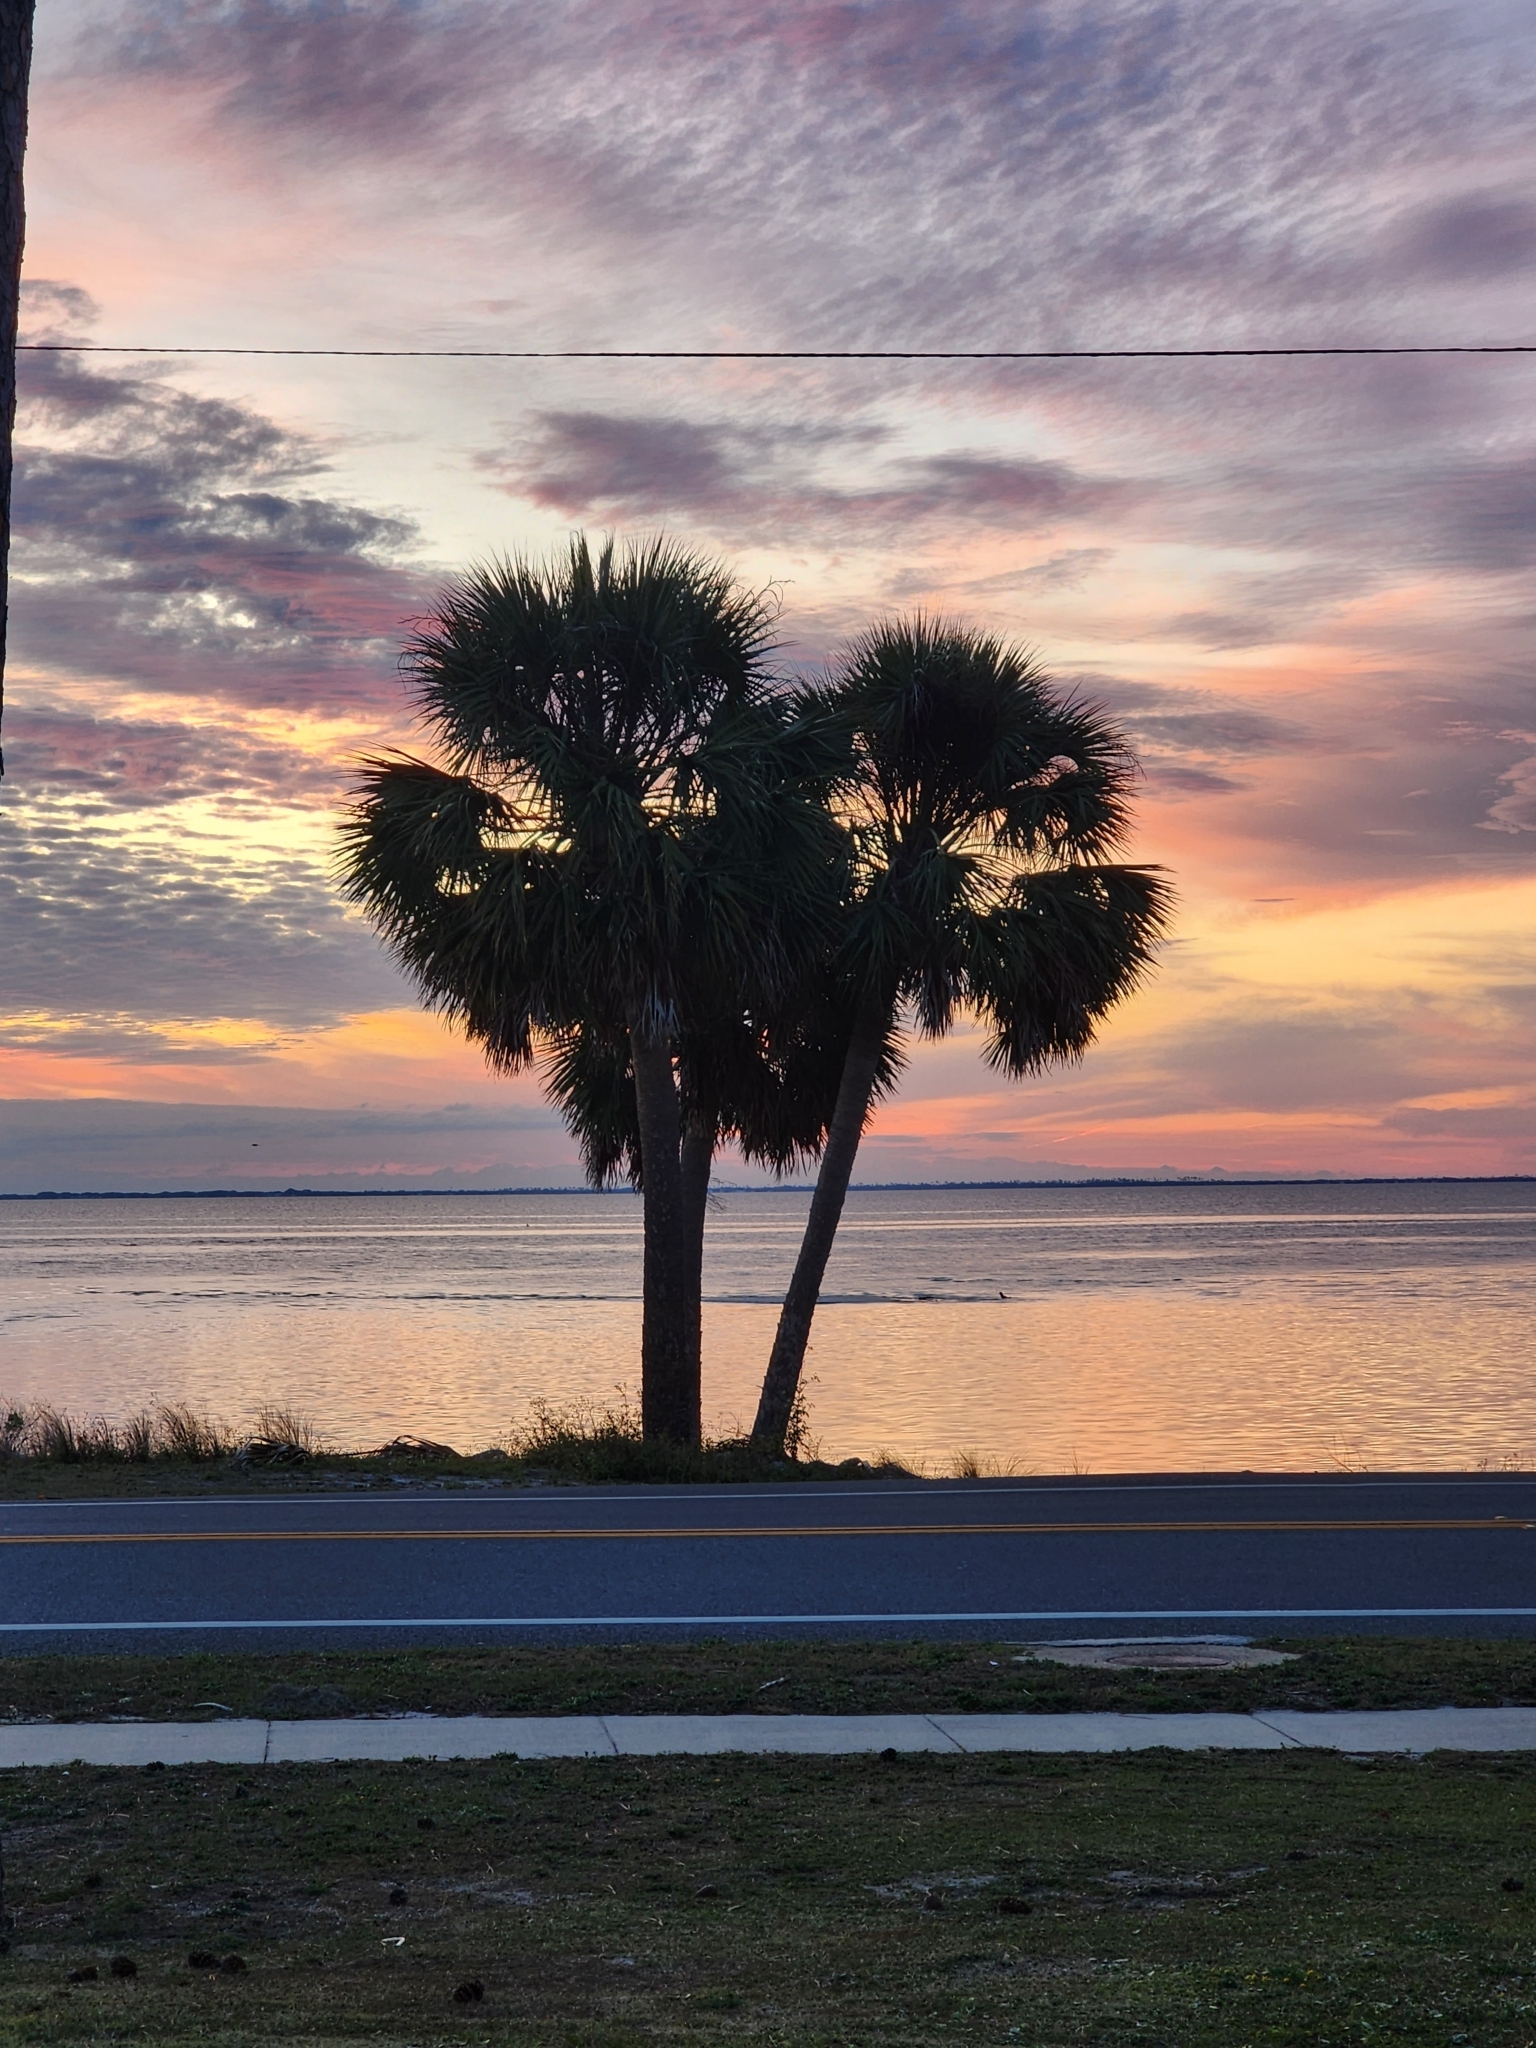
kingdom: Plantae
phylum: Tracheophyta
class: Liliopsida
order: Arecales
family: Arecaceae
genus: Sabal
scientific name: Sabal palmetto
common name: Blue palmetto
